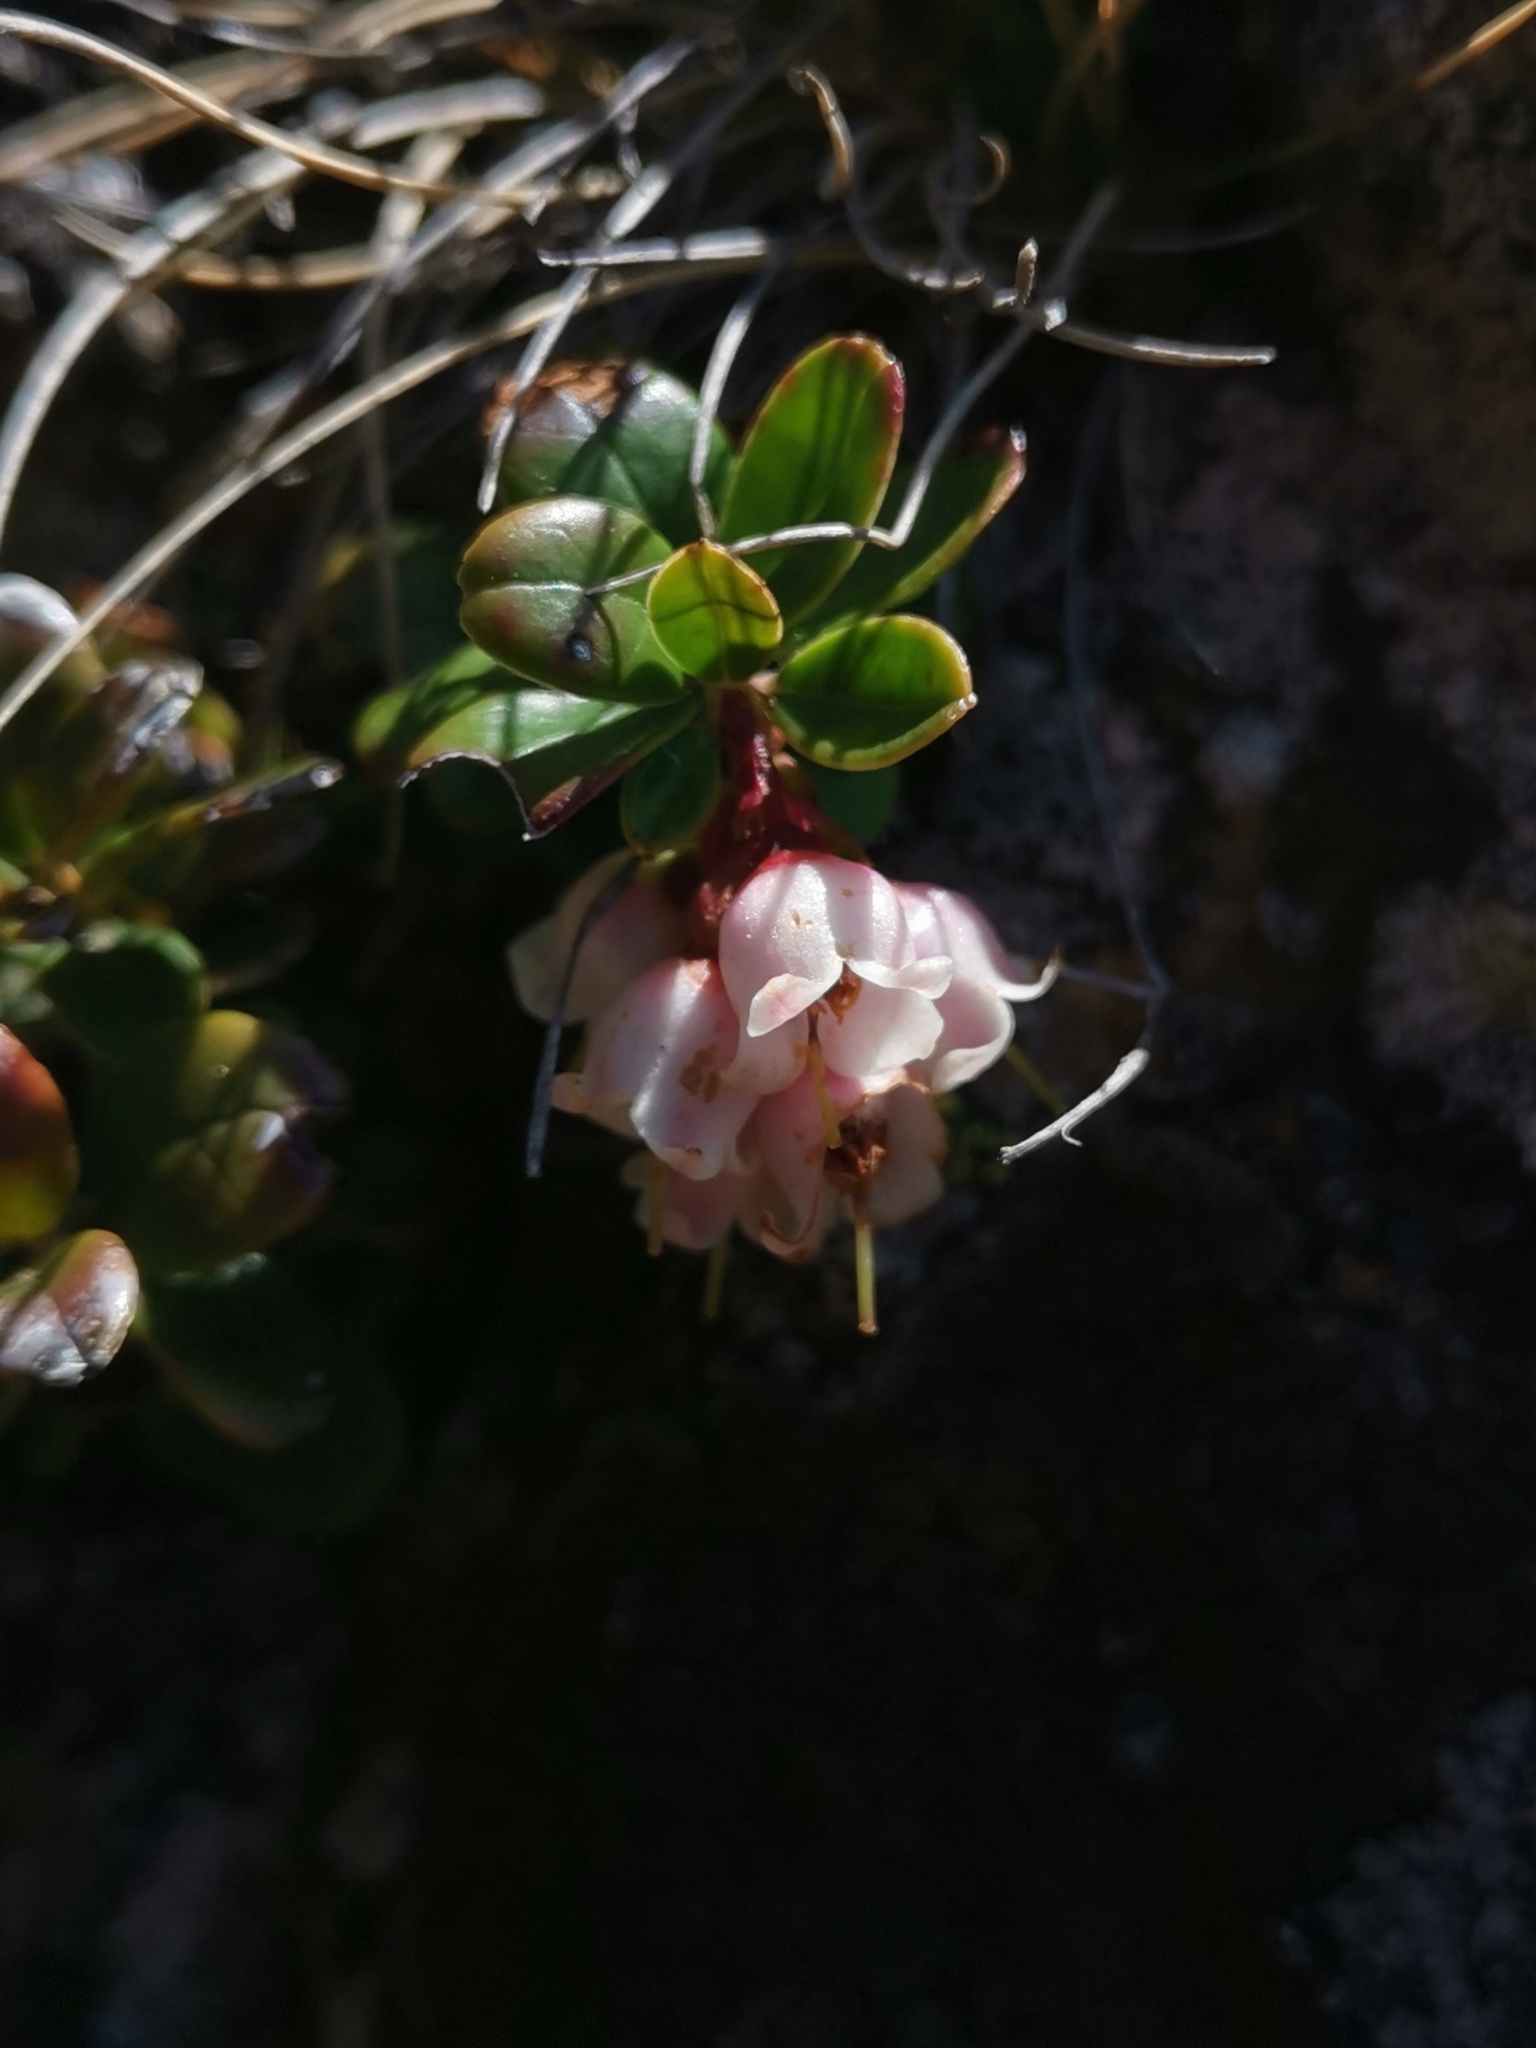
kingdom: Plantae
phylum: Tracheophyta
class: Magnoliopsida
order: Ericales
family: Ericaceae
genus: Vaccinium
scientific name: Vaccinium vitis-idaea
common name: Cowberry
